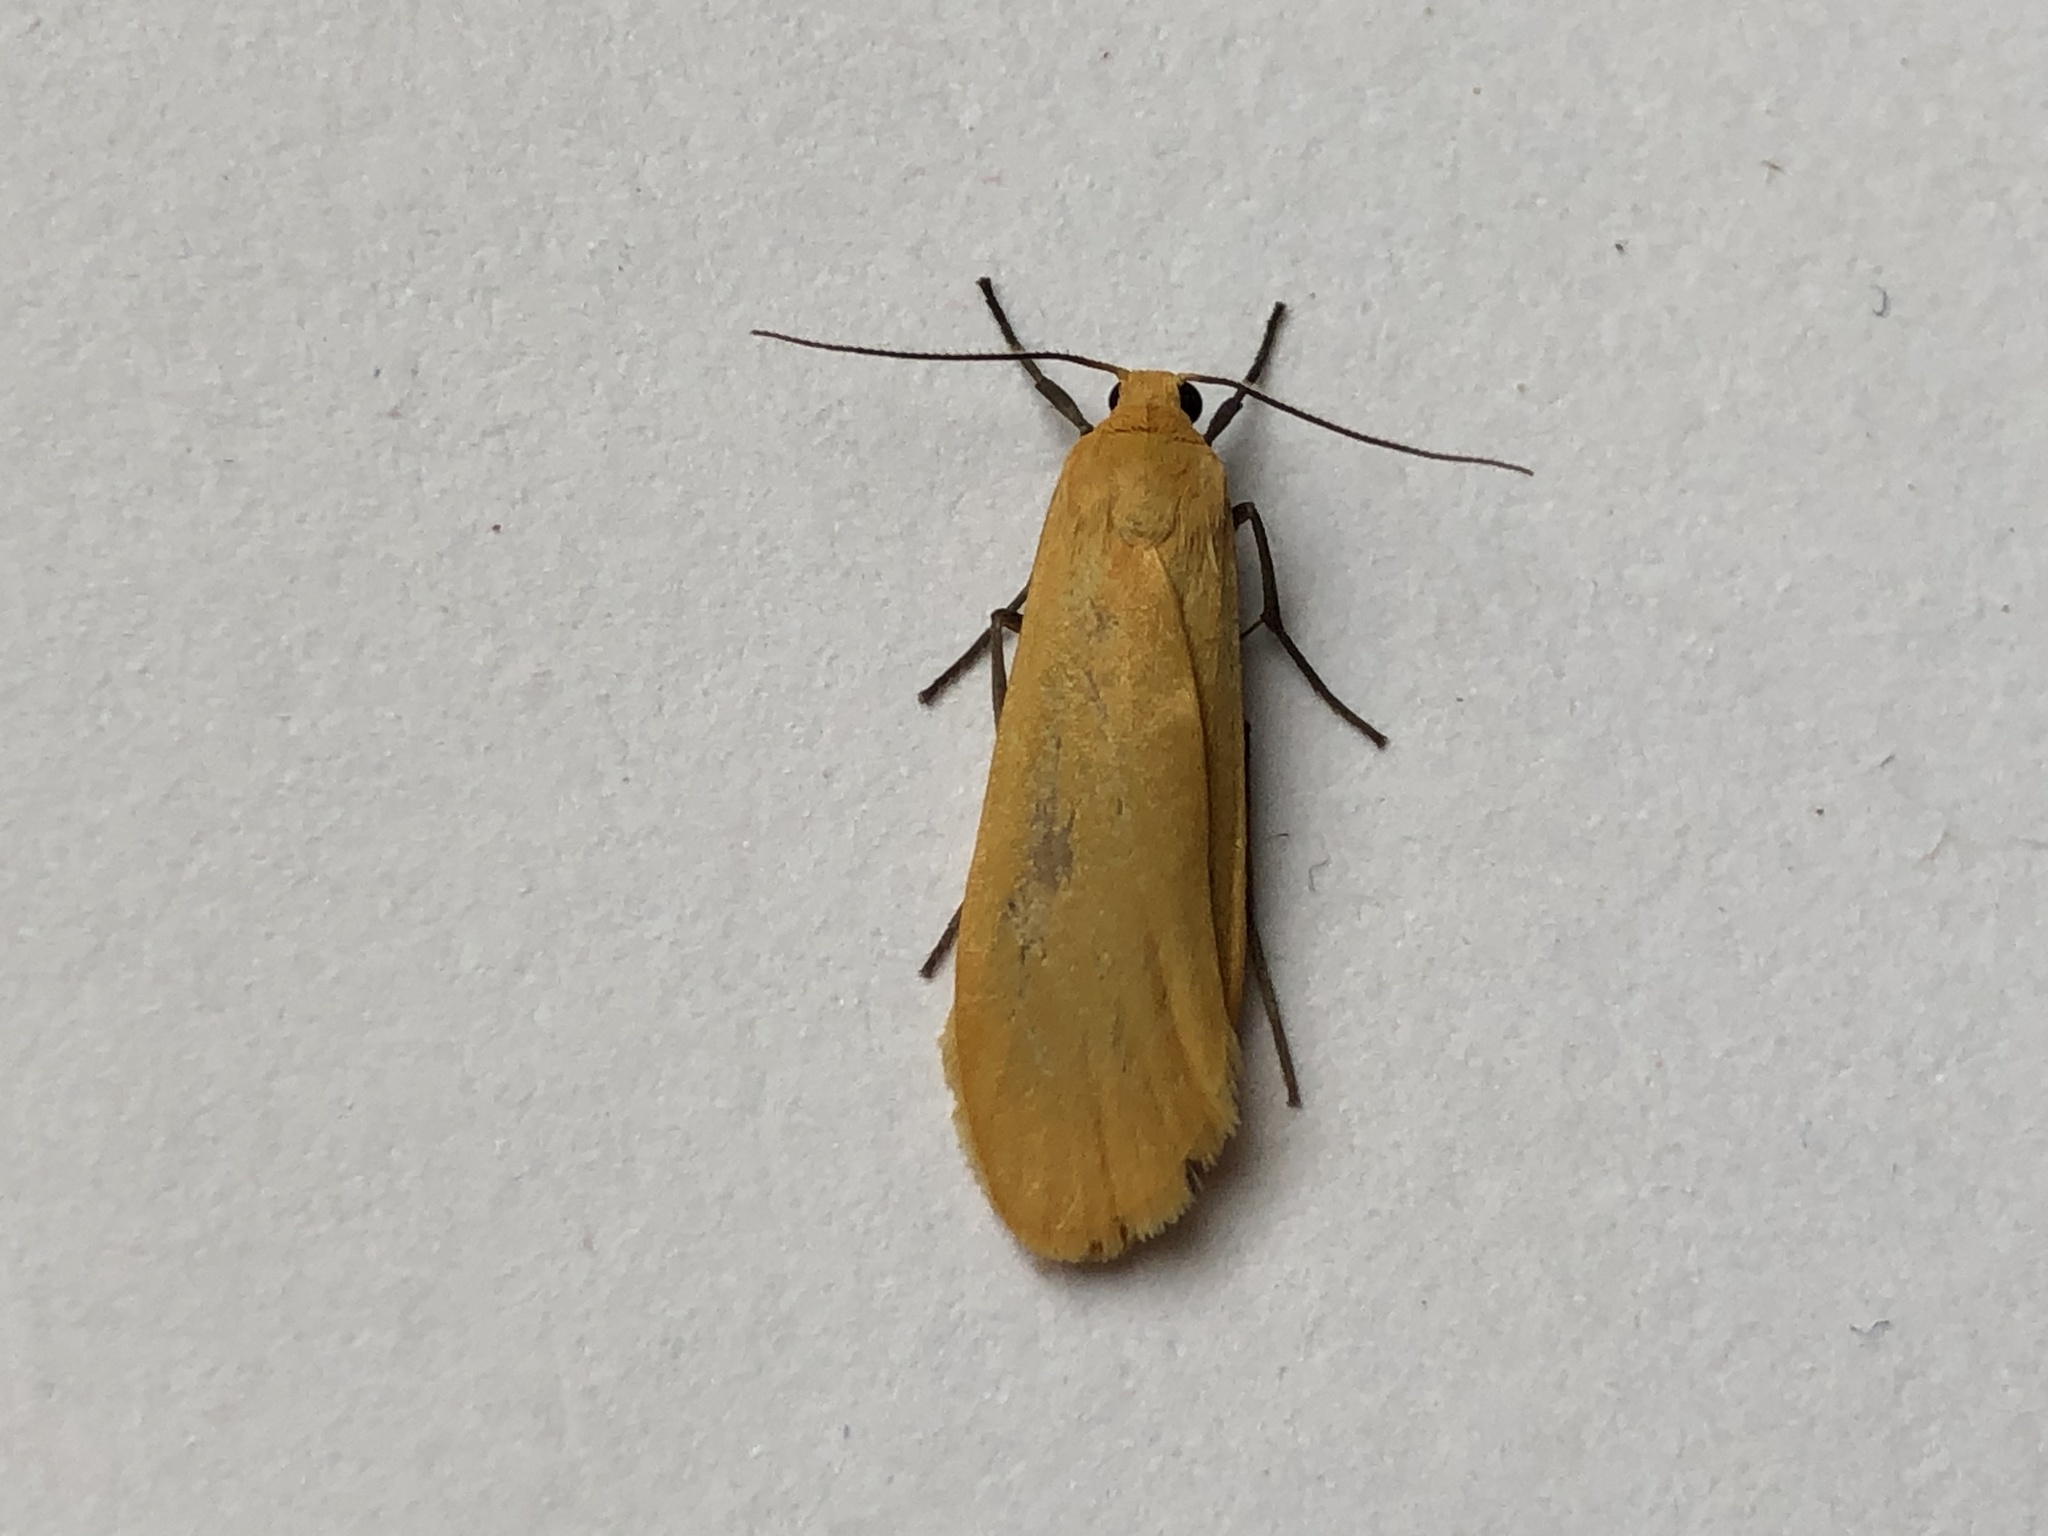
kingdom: Animalia
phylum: Arthropoda
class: Insecta
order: Lepidoptera
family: Erebidae
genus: Wittia
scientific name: Wittia sororcula
